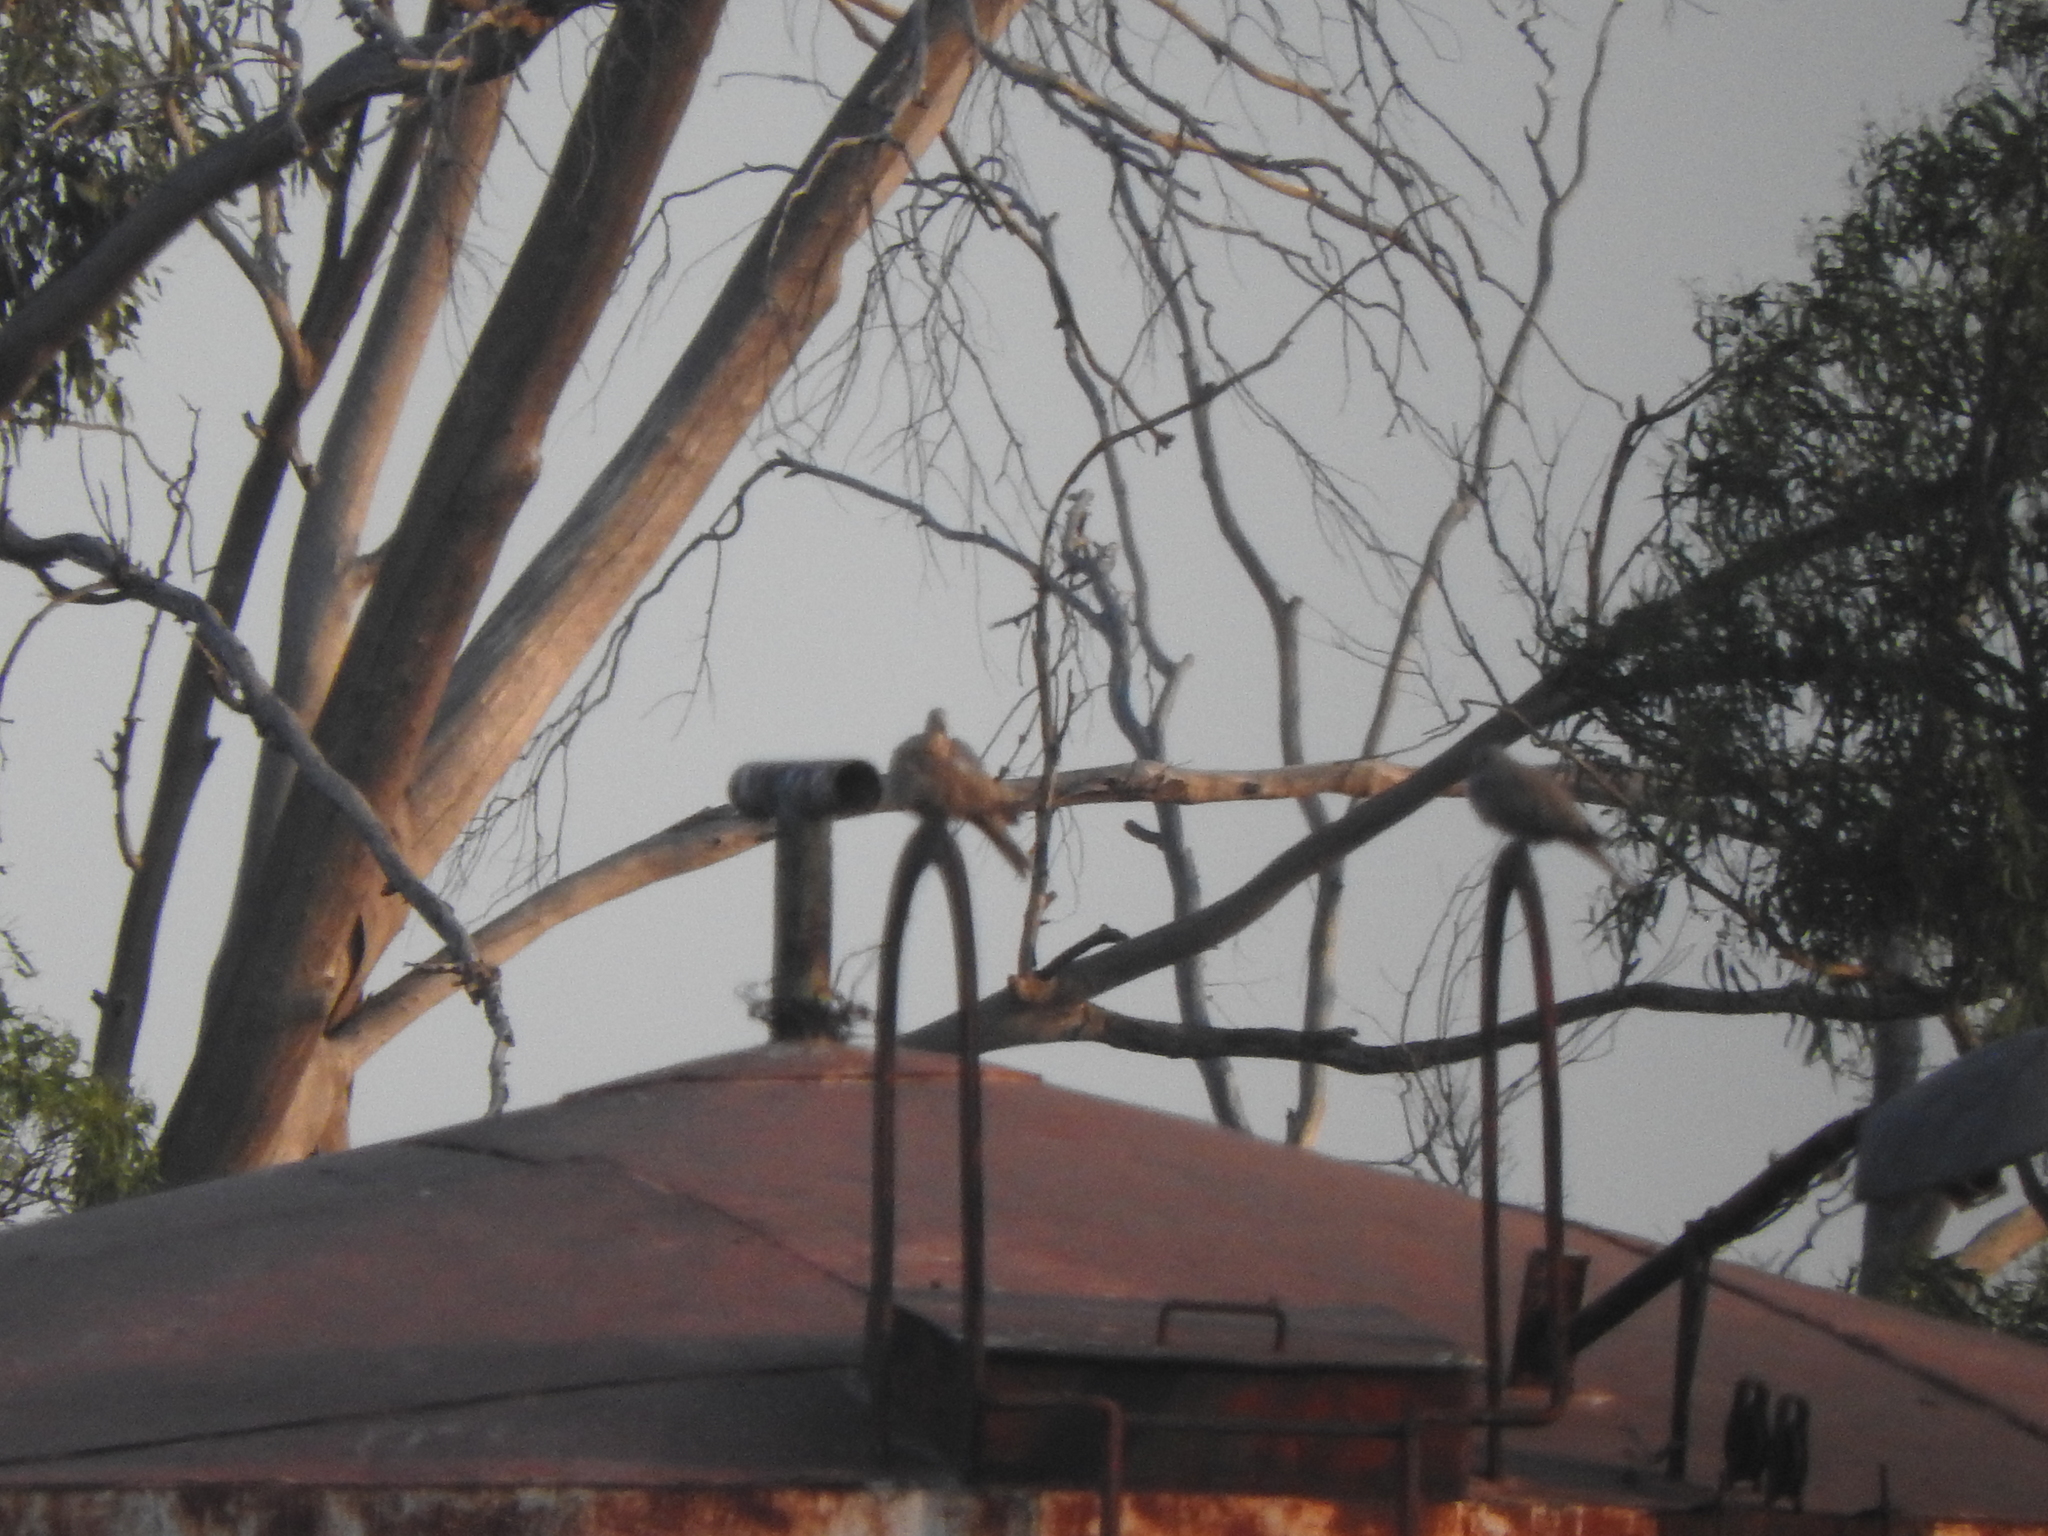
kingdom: Animalia
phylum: Chordata
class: Aves
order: Columbiformes
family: Columbidae
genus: Streptopelia
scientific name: Streptopelia decaocto
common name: Eurasian collared dove
